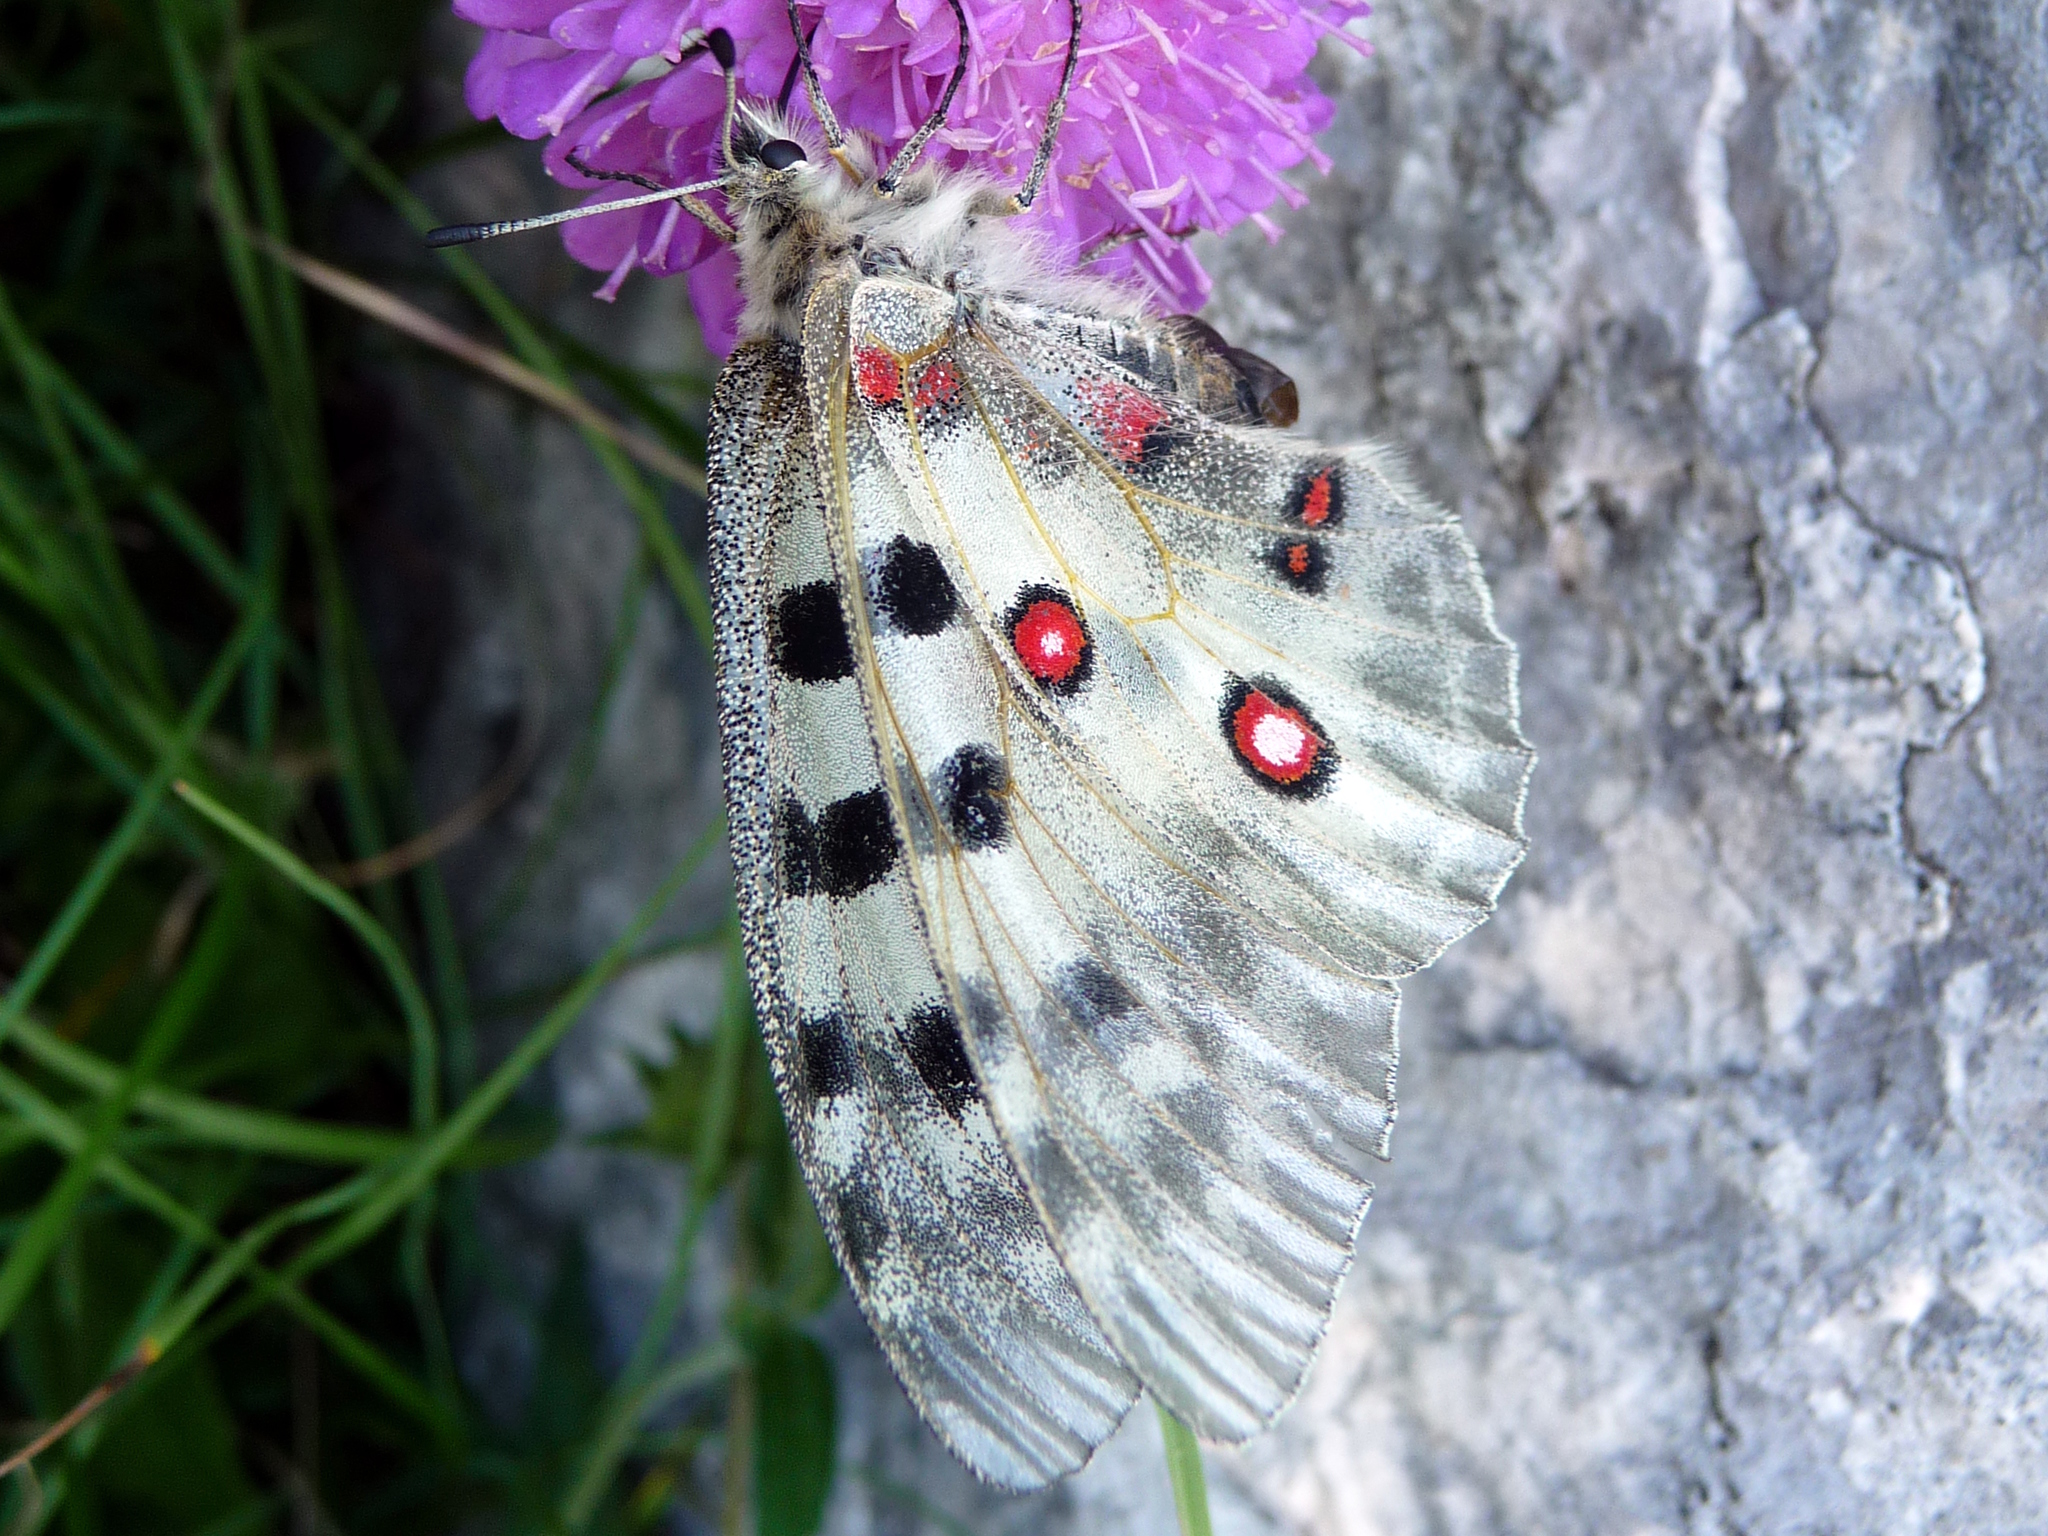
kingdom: Animalia
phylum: Arthropoda
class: Insecta
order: Lepidoptera
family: Papilionidae
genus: Parnassius
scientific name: Parnassius apollo
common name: Apollo
